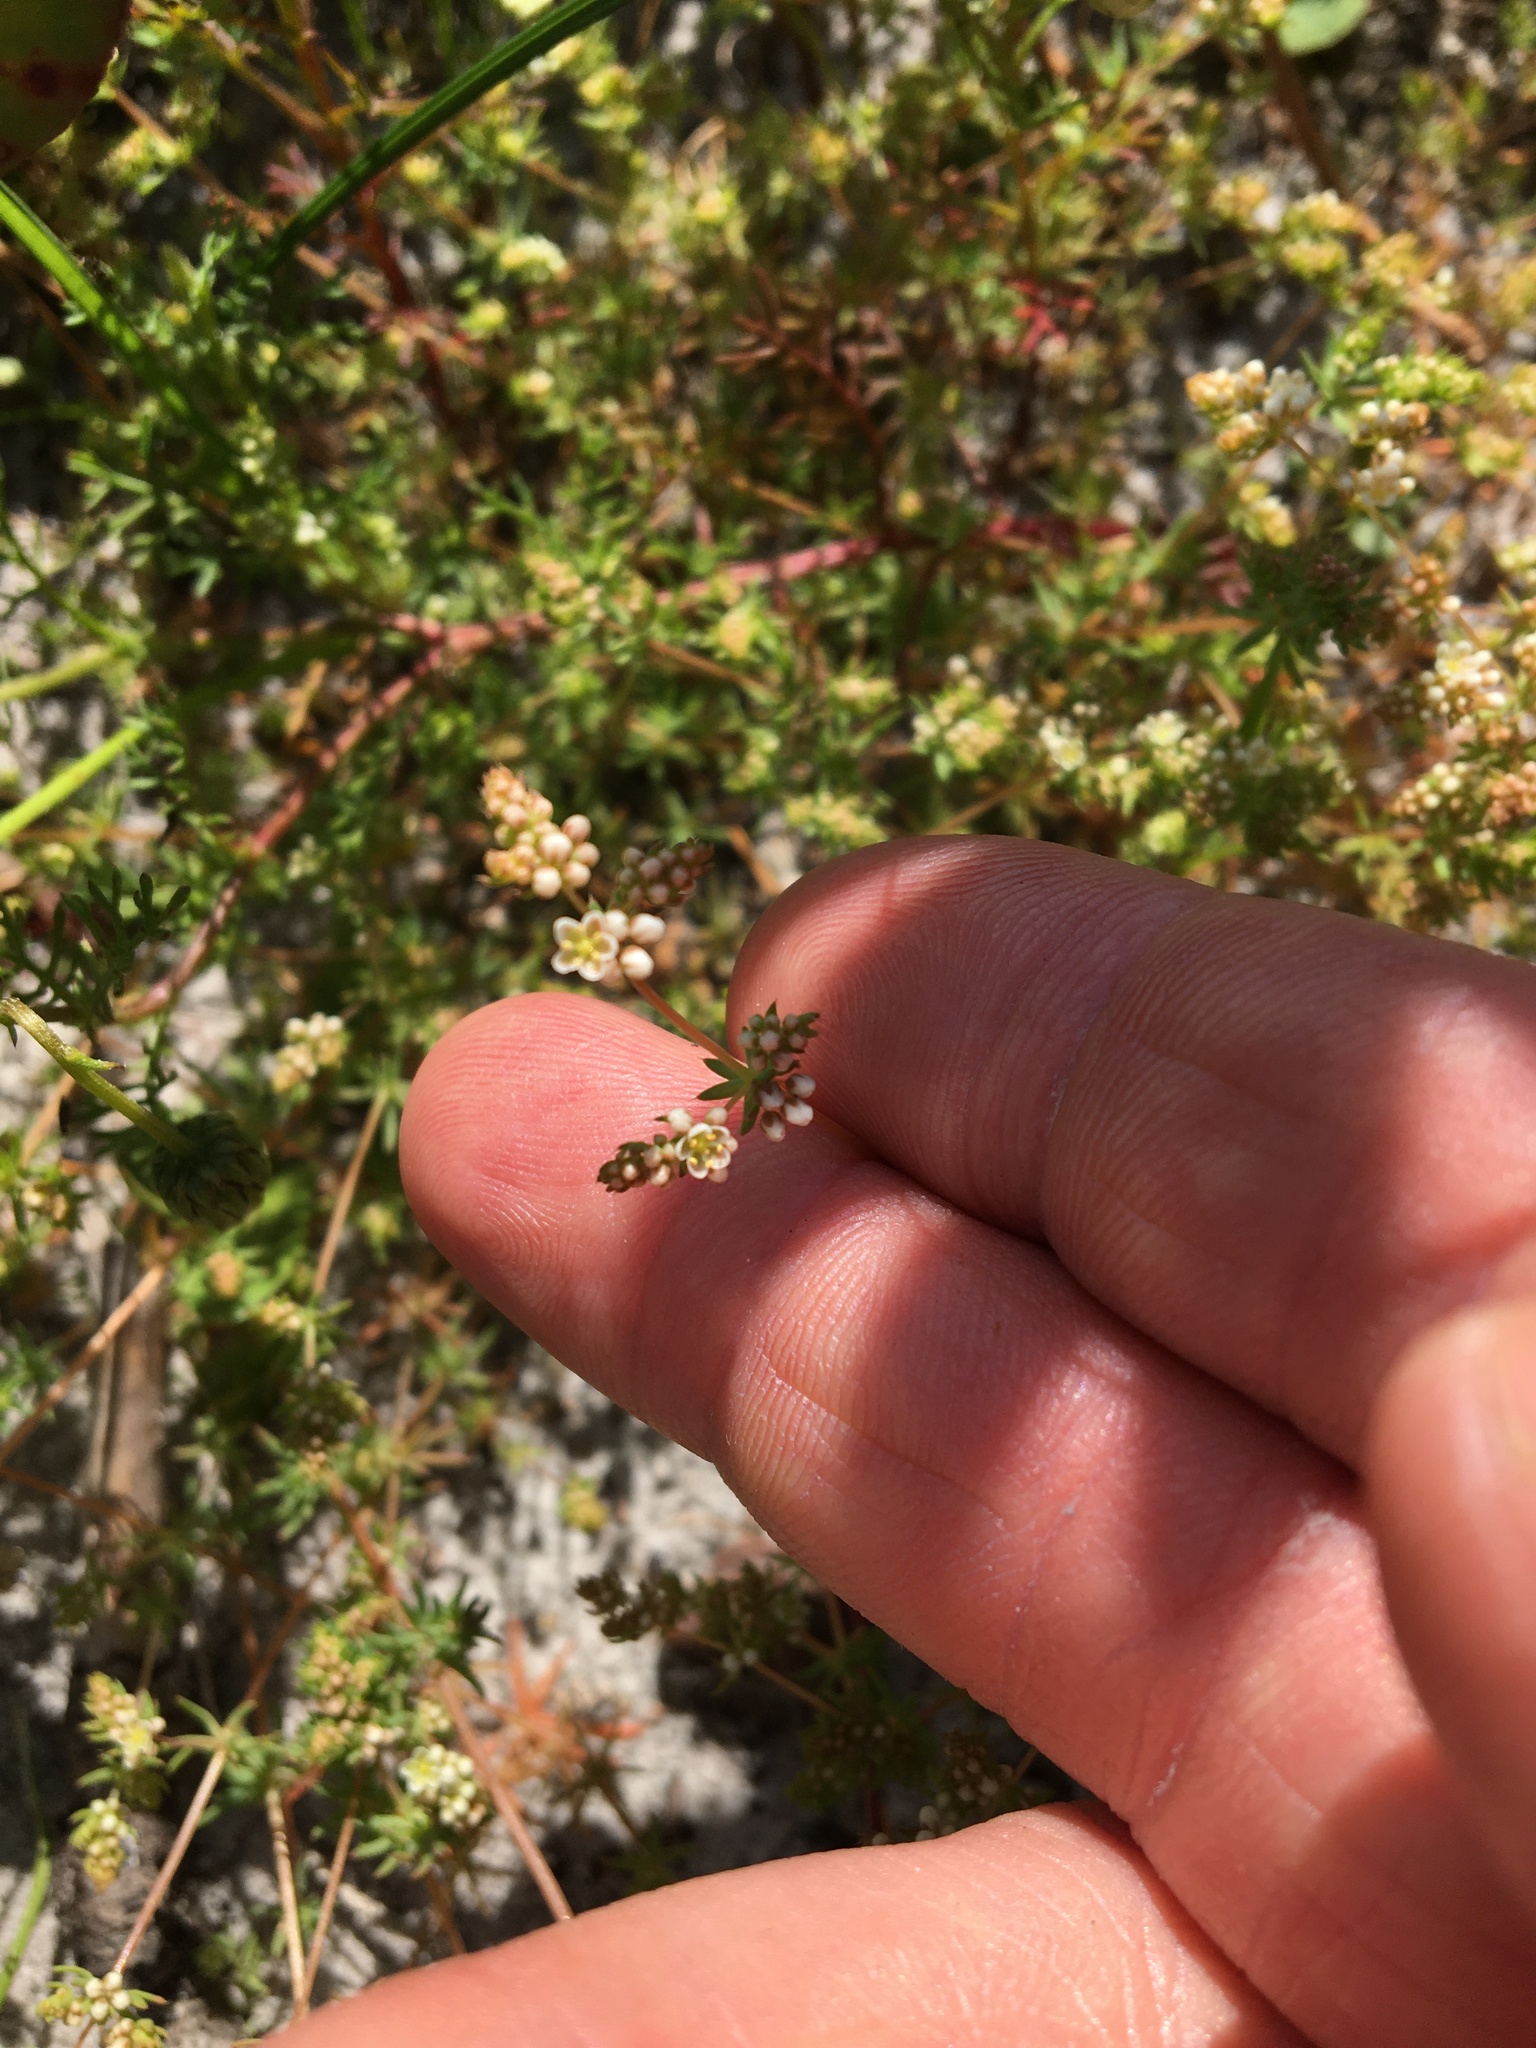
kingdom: Plantae
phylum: Tracheophyta
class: Magnoliopsida
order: Caryophyllales
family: Molluginaceae
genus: Adenogramma
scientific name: Adenogramma glomerata
